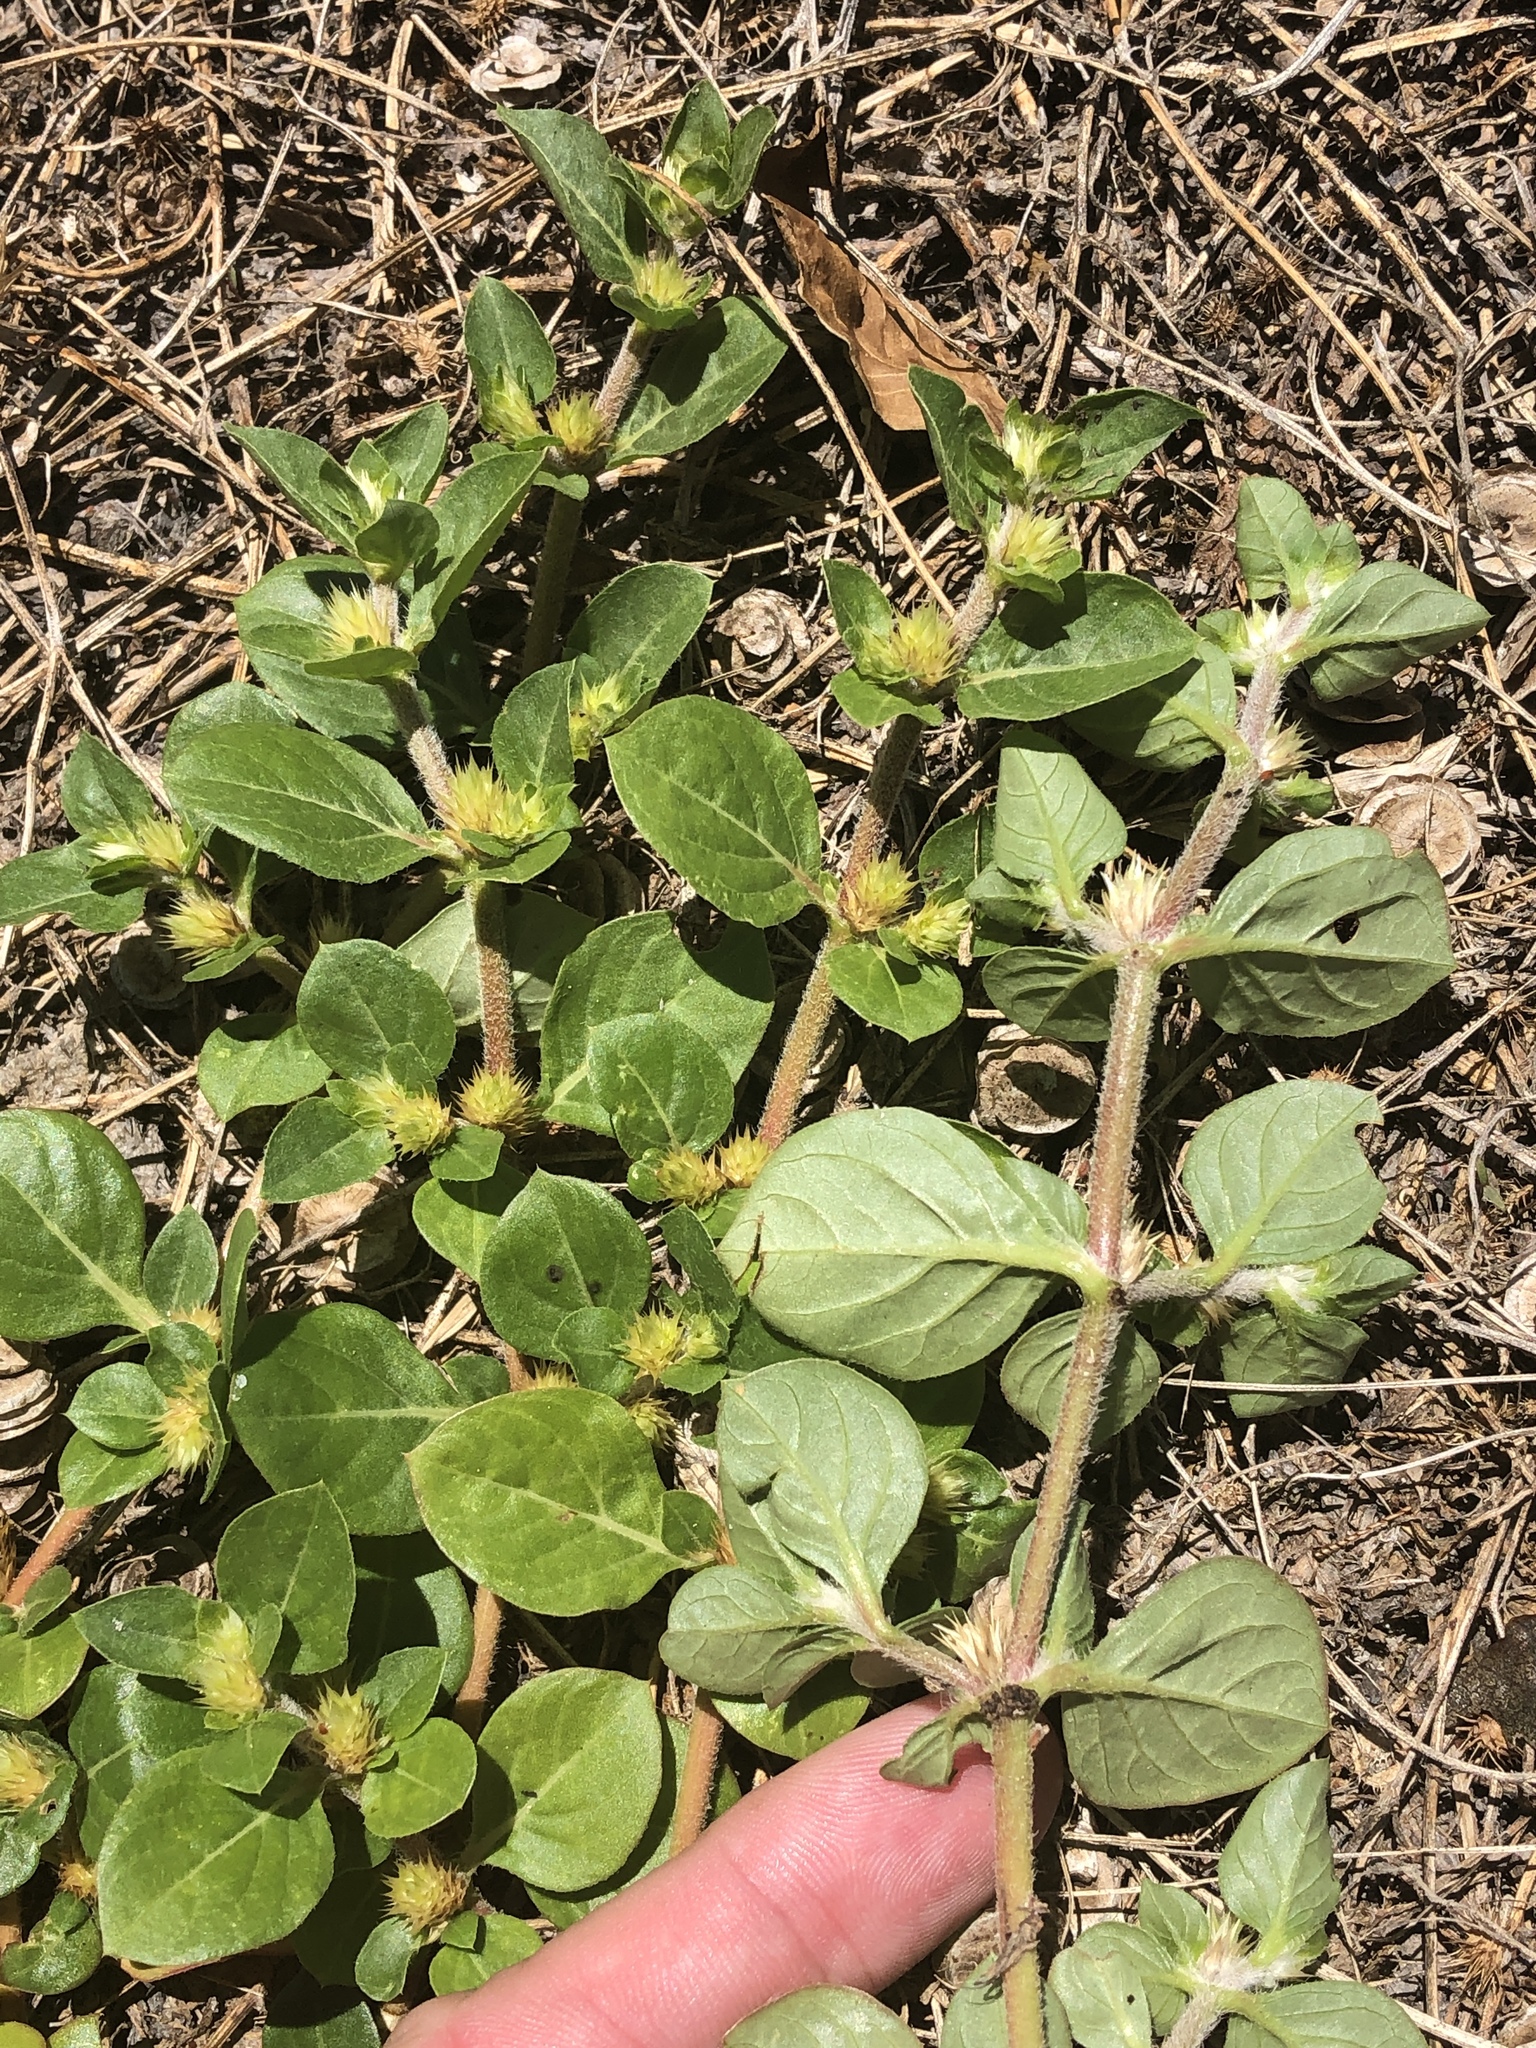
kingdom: Plantae
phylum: Tracheophyta
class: Magnoliopsida
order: Caryophyllales
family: Amaranthaceae
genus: Alternanthera
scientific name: Alternanthera pungens
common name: Khakiweed
